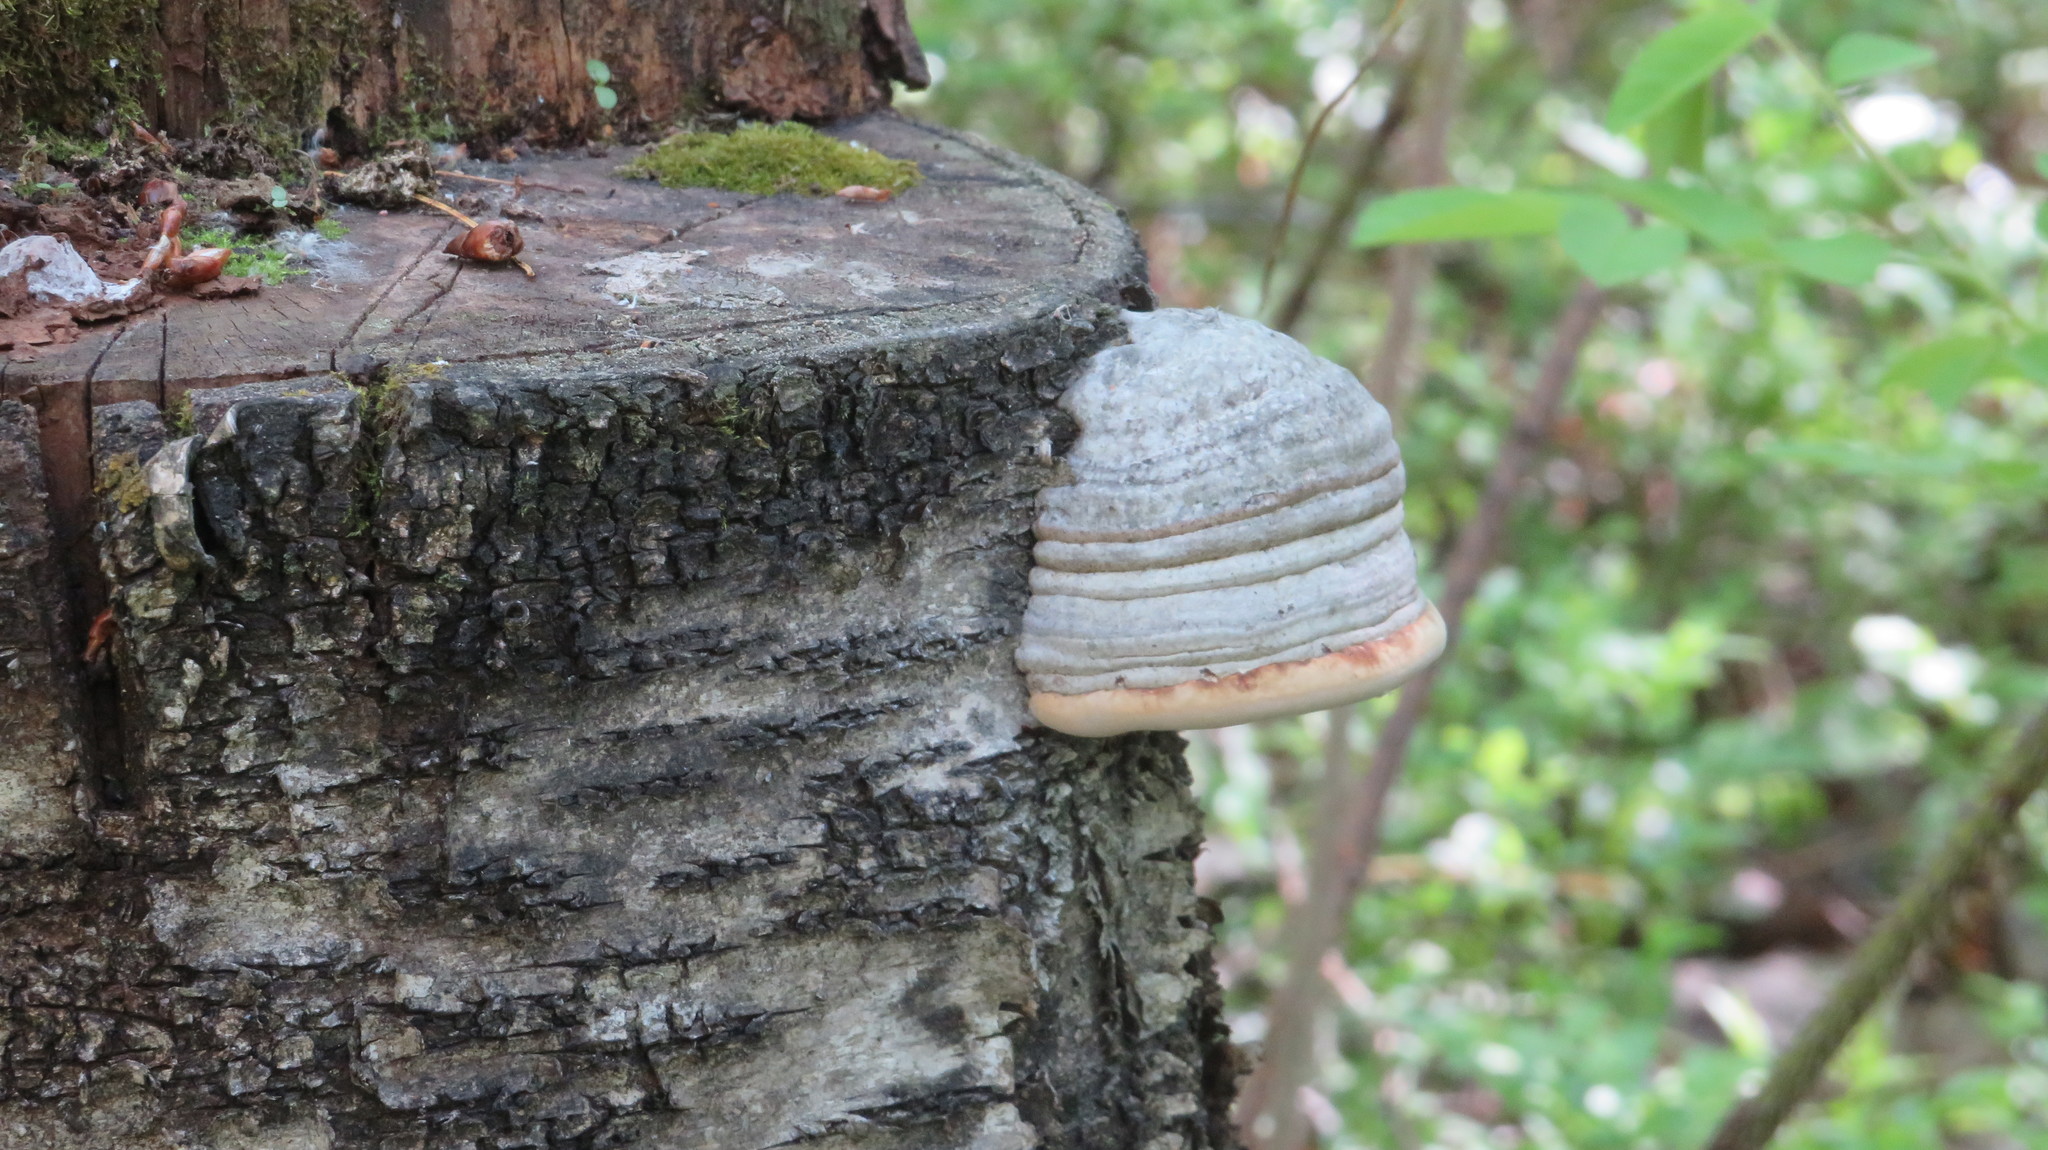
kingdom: Fungi
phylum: Basidiomycota
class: Agaricomycetes
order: Polyporales
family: Polyporaceae
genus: Fomes
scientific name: Fomes fomentarius
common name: Hoof fungus
